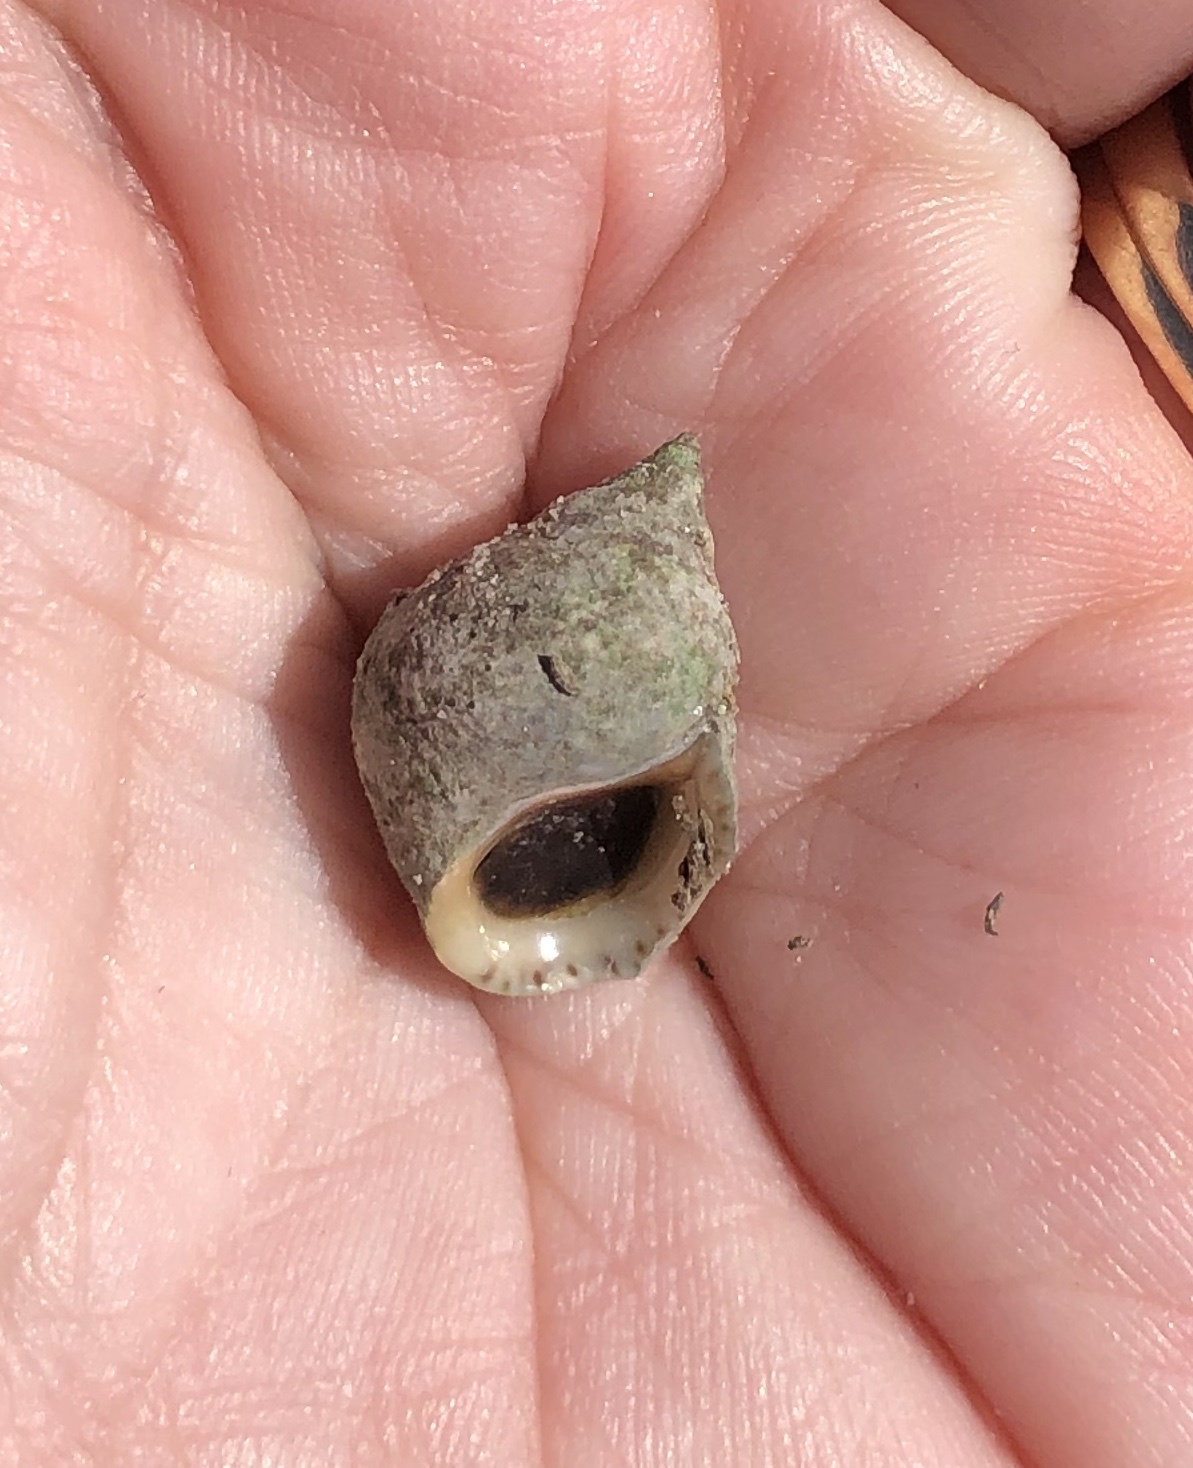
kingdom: Animalia
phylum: Mollusca
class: Gastropoda
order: Littorinimorpha
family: Littorinidae
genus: Littoraria
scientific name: Littoraria irrorata
